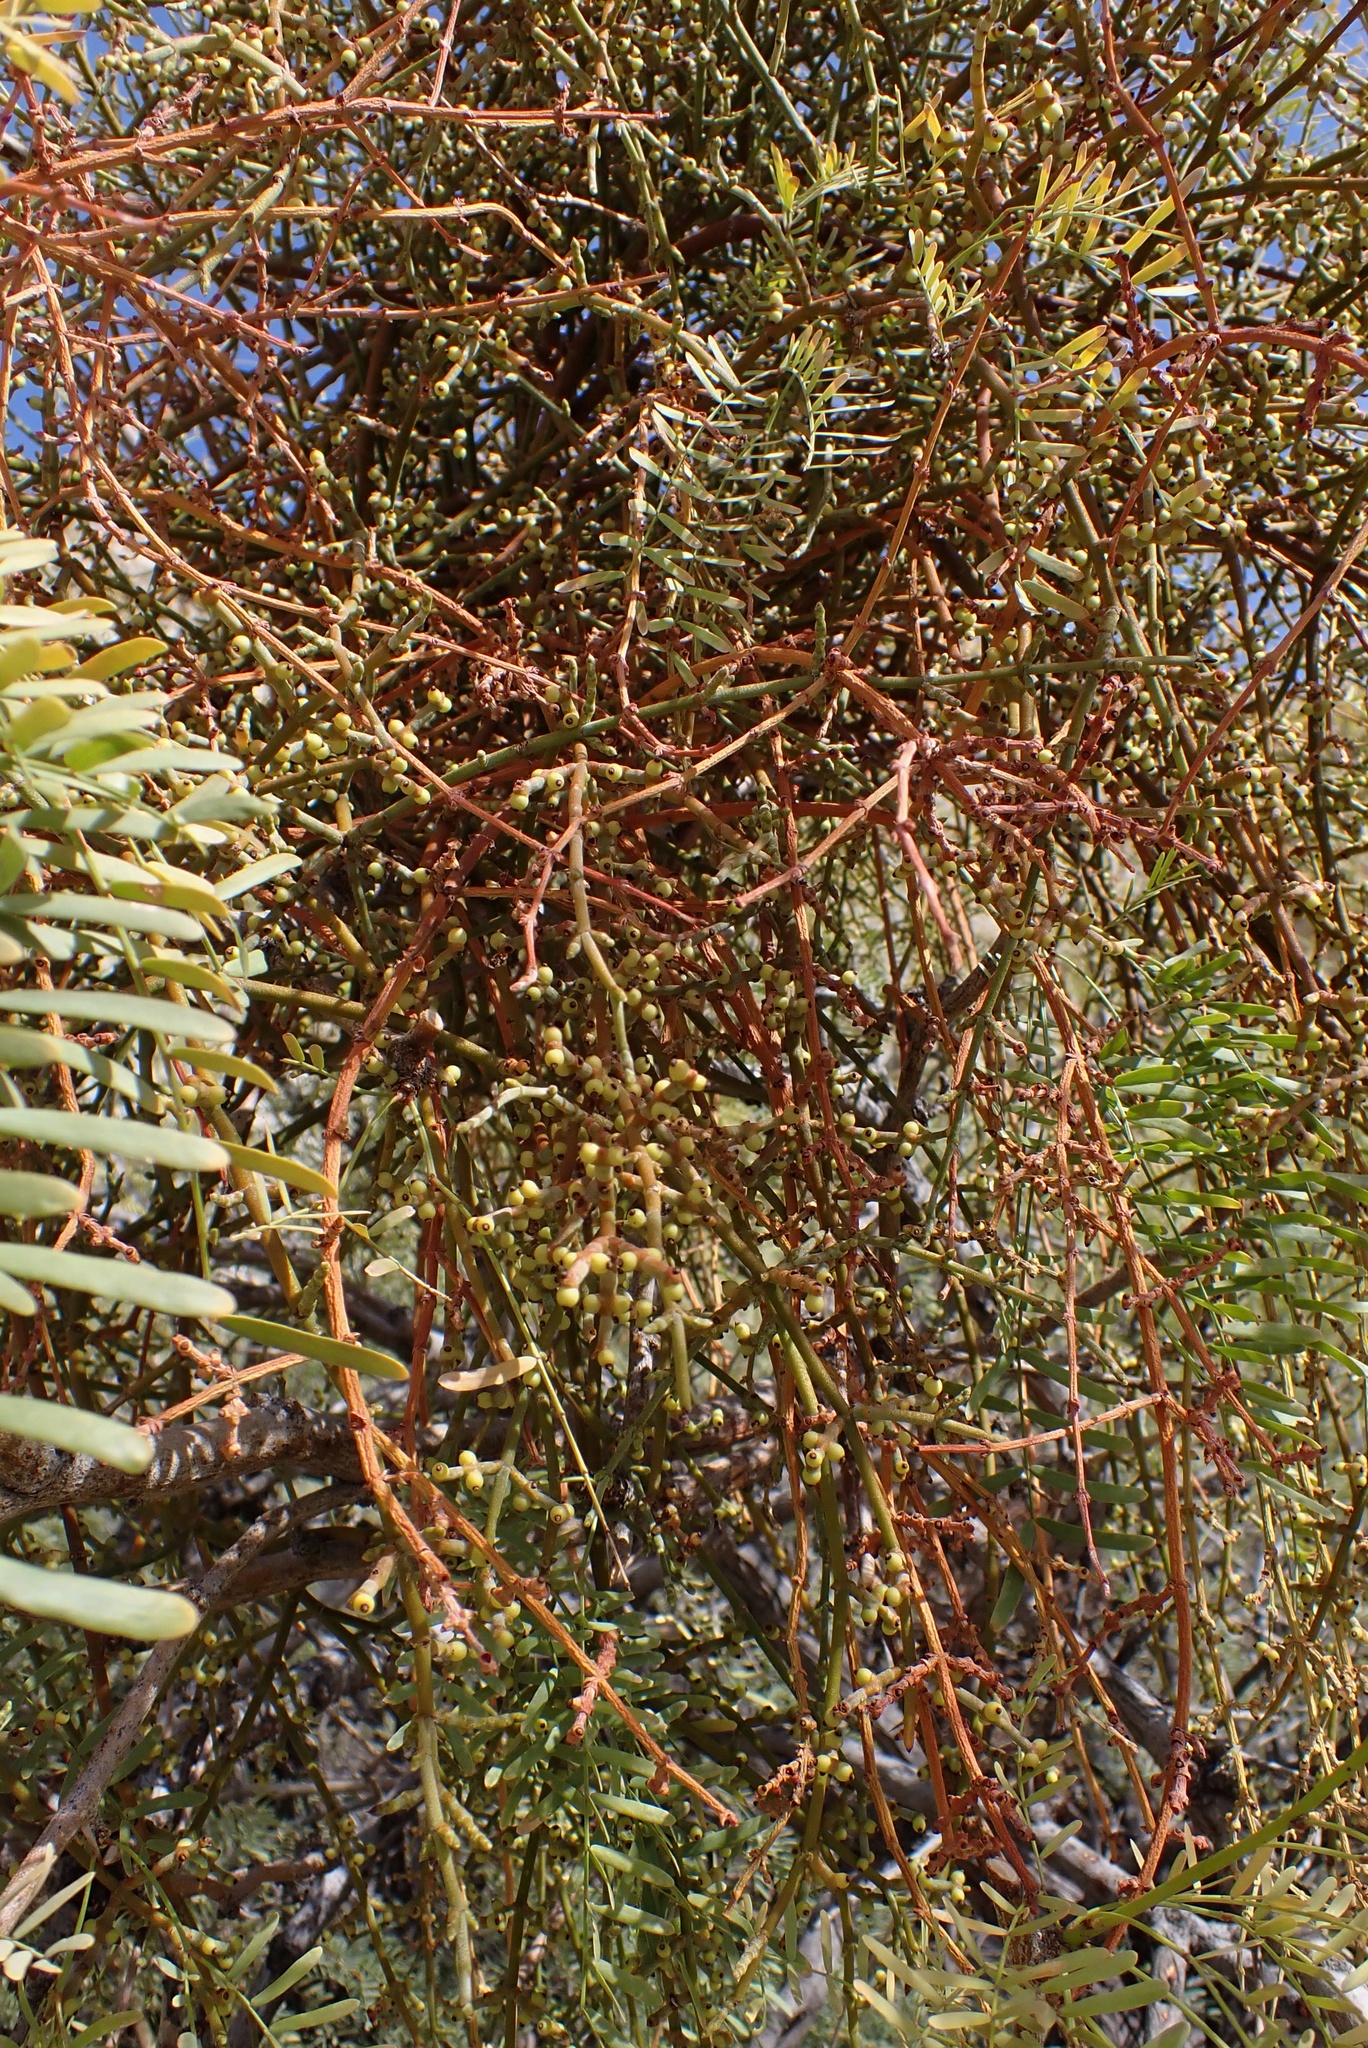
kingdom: Plantae
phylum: Tracheophyta
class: Magnoliopsida
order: Santalales
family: Viscaceae
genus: Phoradendron
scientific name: Phoradendron californicum
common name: Acacia mistletoe
